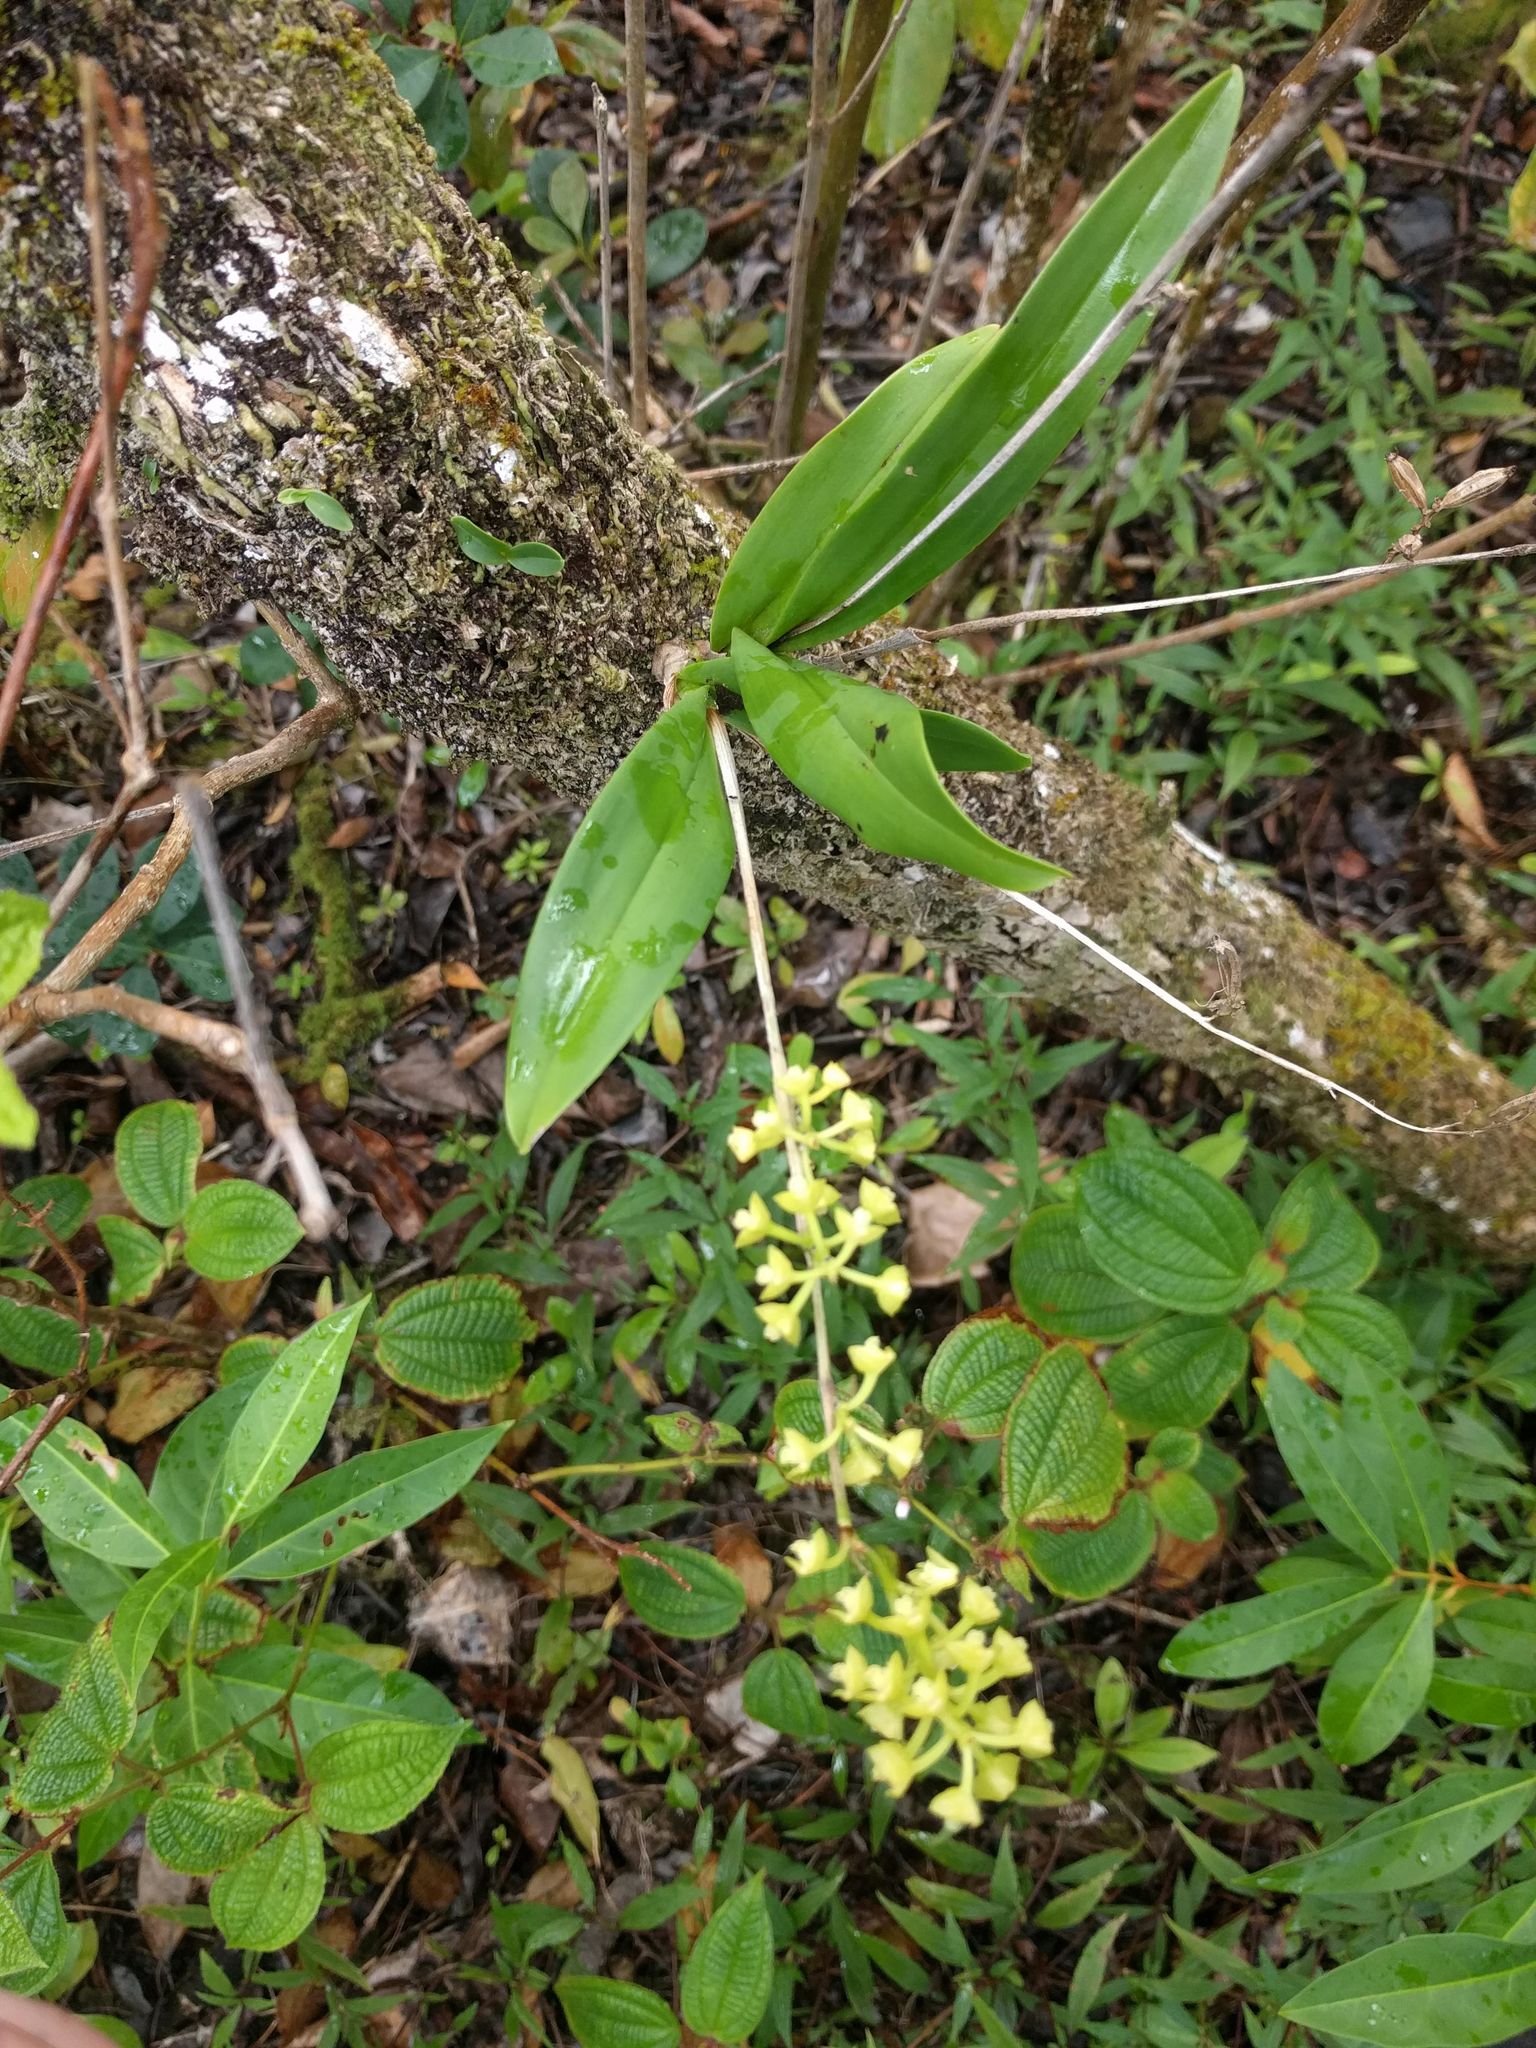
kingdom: Plantae
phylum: Tracheophyta
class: Liliopsida
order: Asparagales
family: Orchidaceae
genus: Polystachya
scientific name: Polystachya concreta
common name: Greater yellowspike orchid
